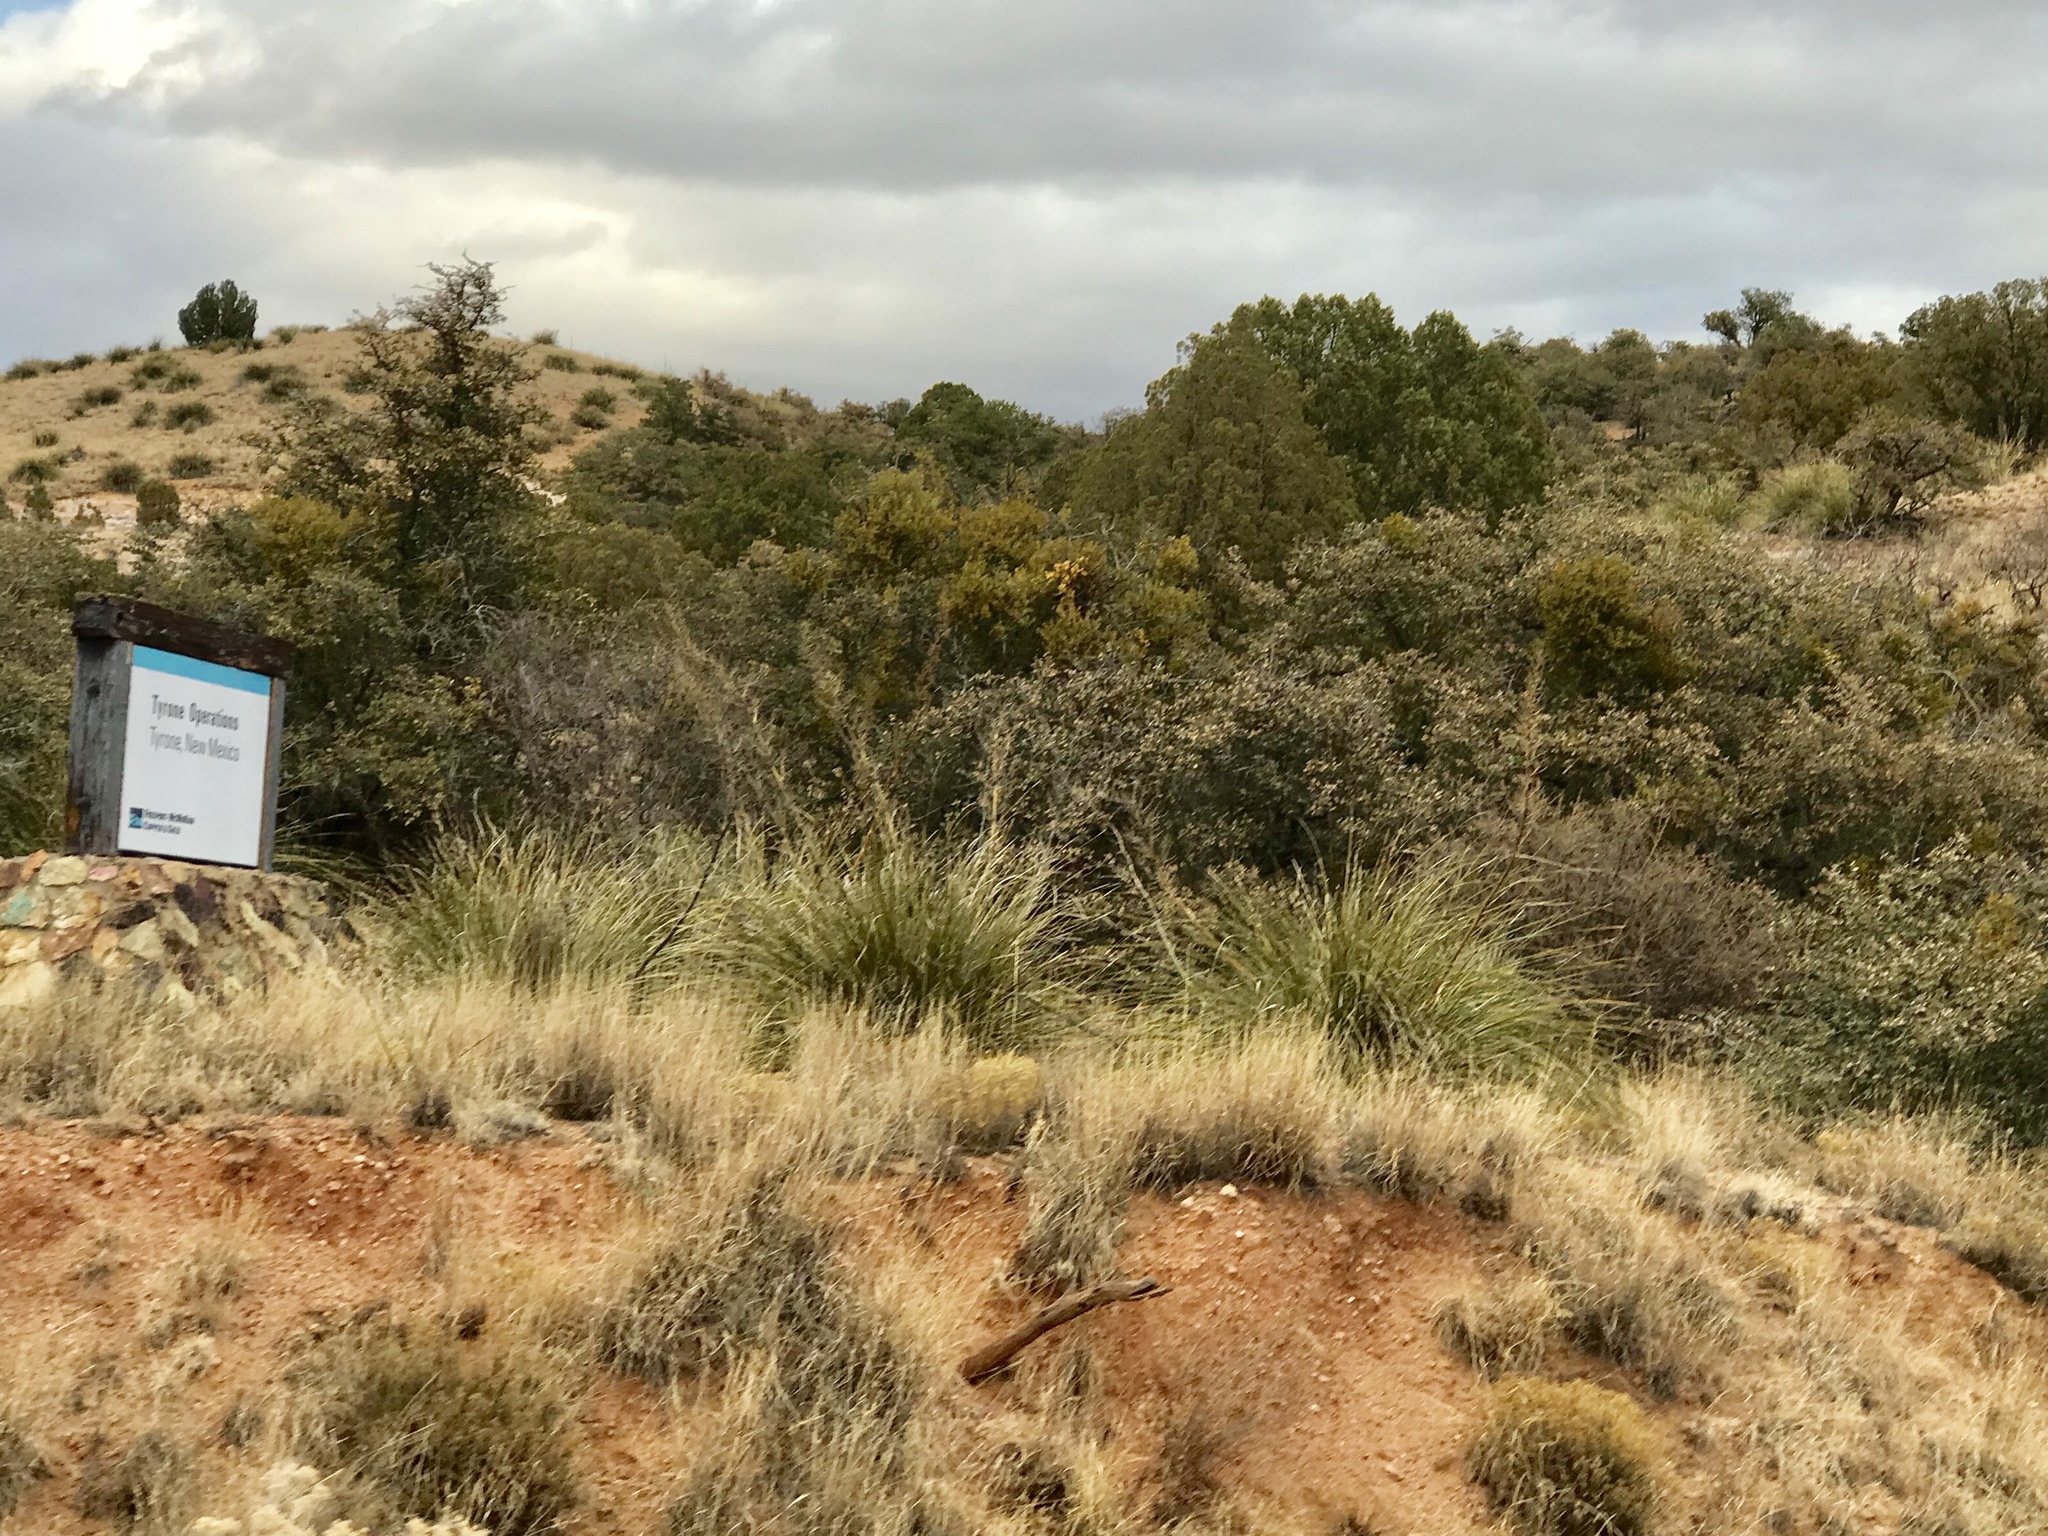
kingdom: Plantae
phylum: Tracheophyta
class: Liliopsida
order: Asparagales
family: Asparagaceae
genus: Nolina
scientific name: Nolina microcarpa
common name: Bear-grass
